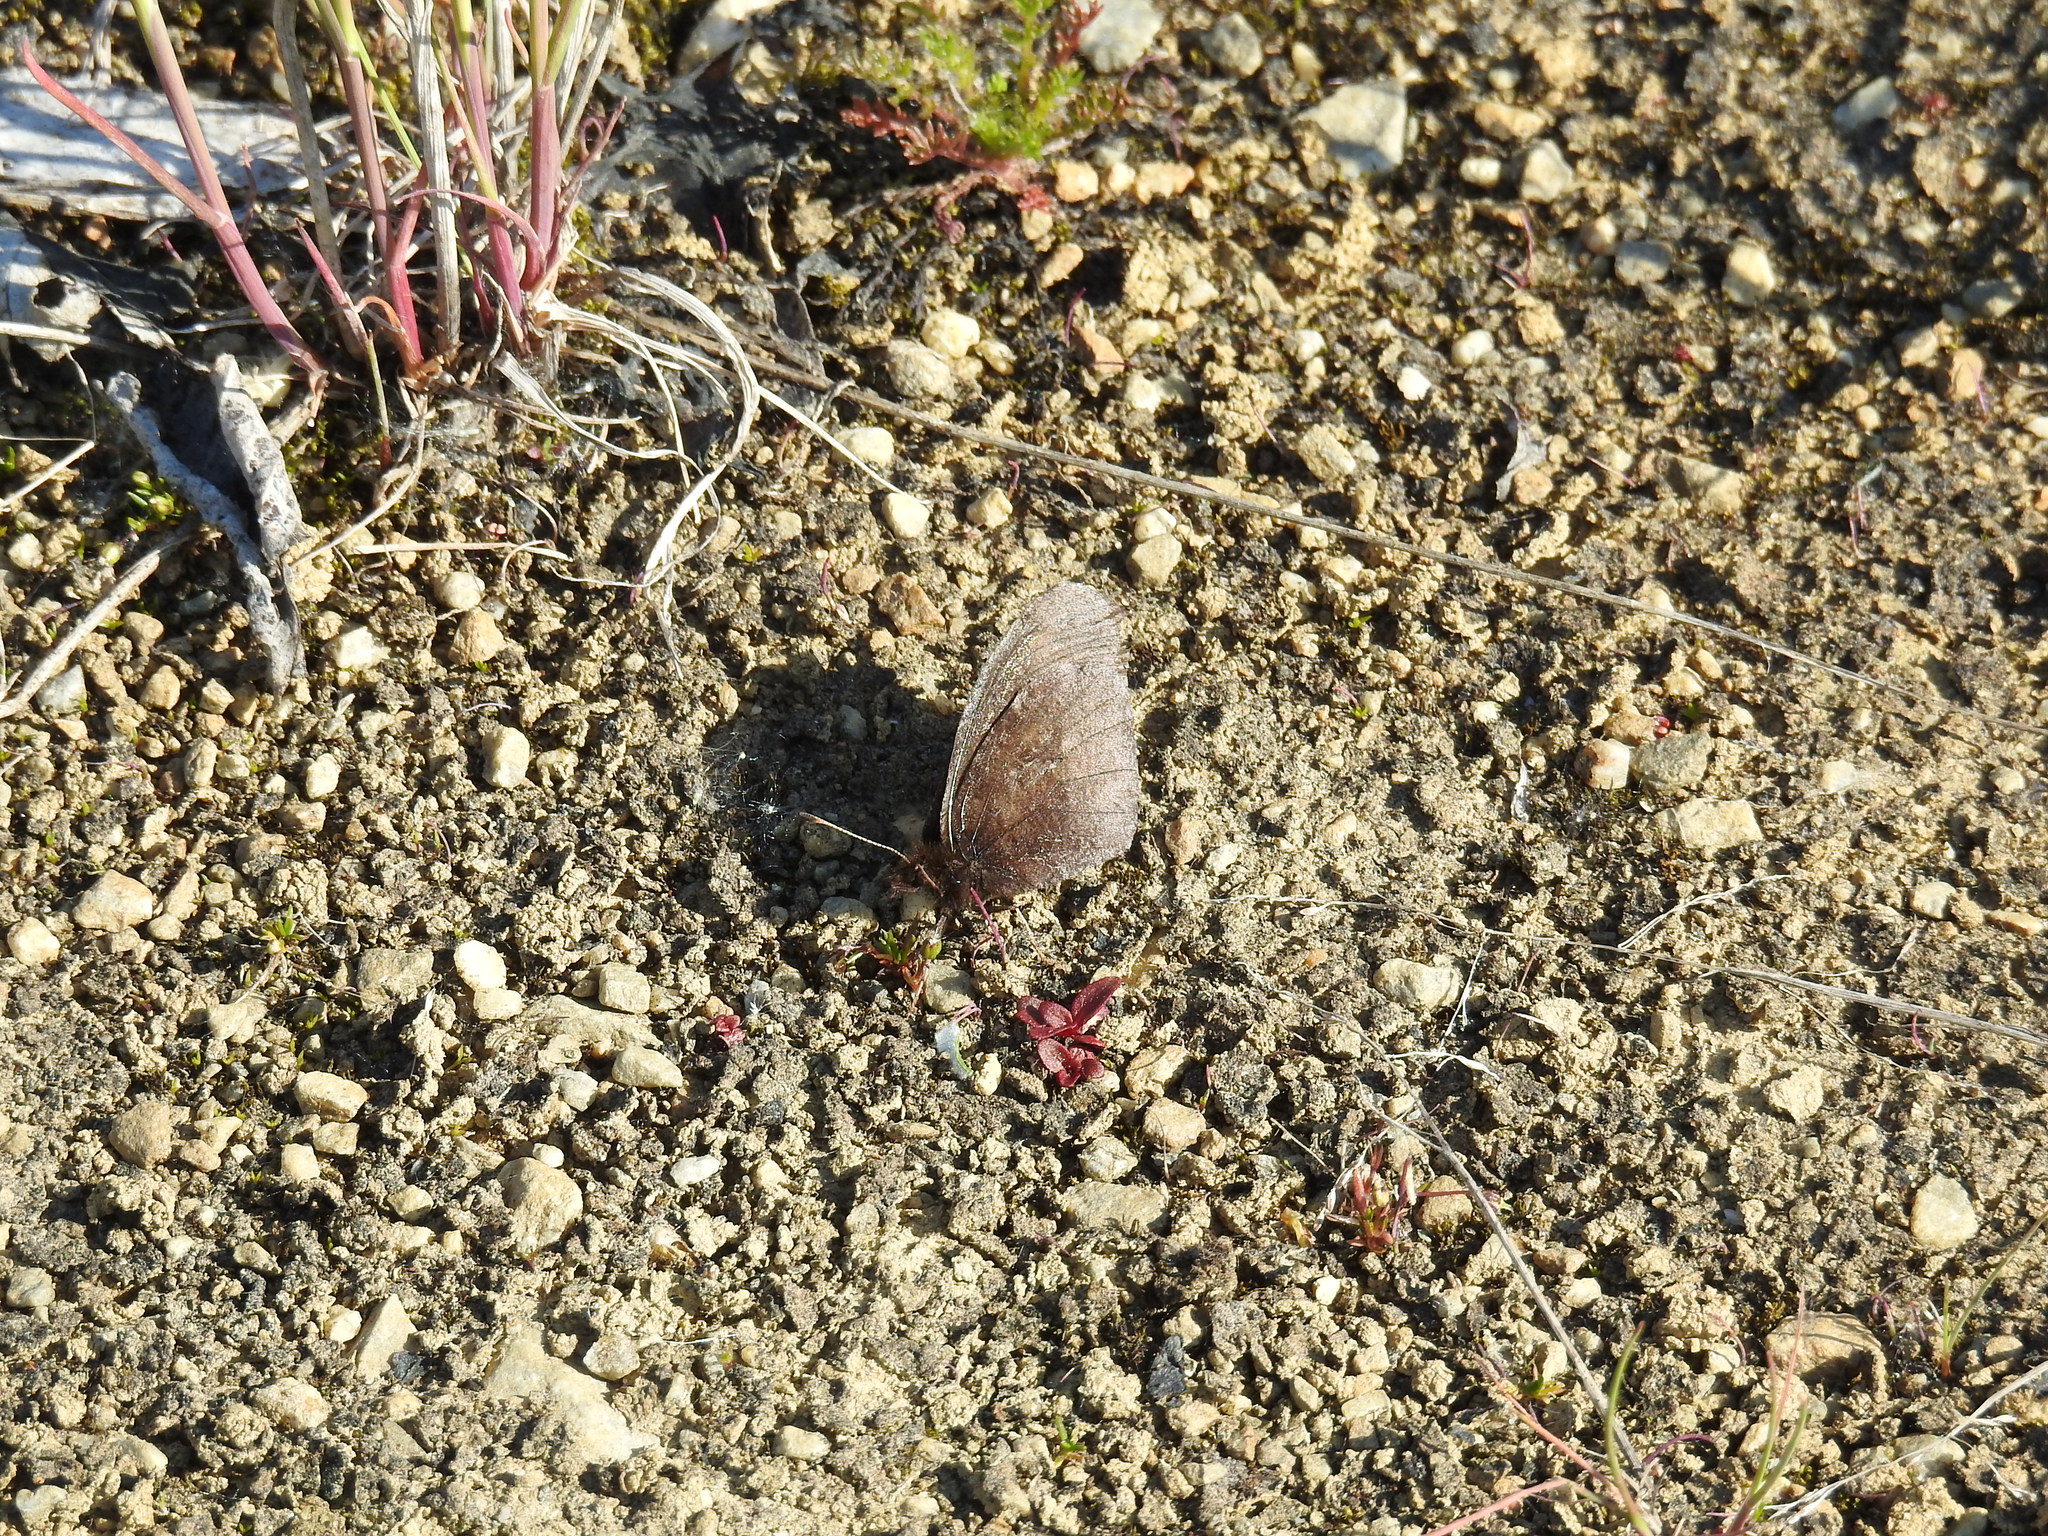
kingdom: Animalia
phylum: Arthropoda
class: Insecta
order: Lepidoptera
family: Nymphalidae
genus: Erebia
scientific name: Erebia discoidalis
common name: Red-disked alpine
